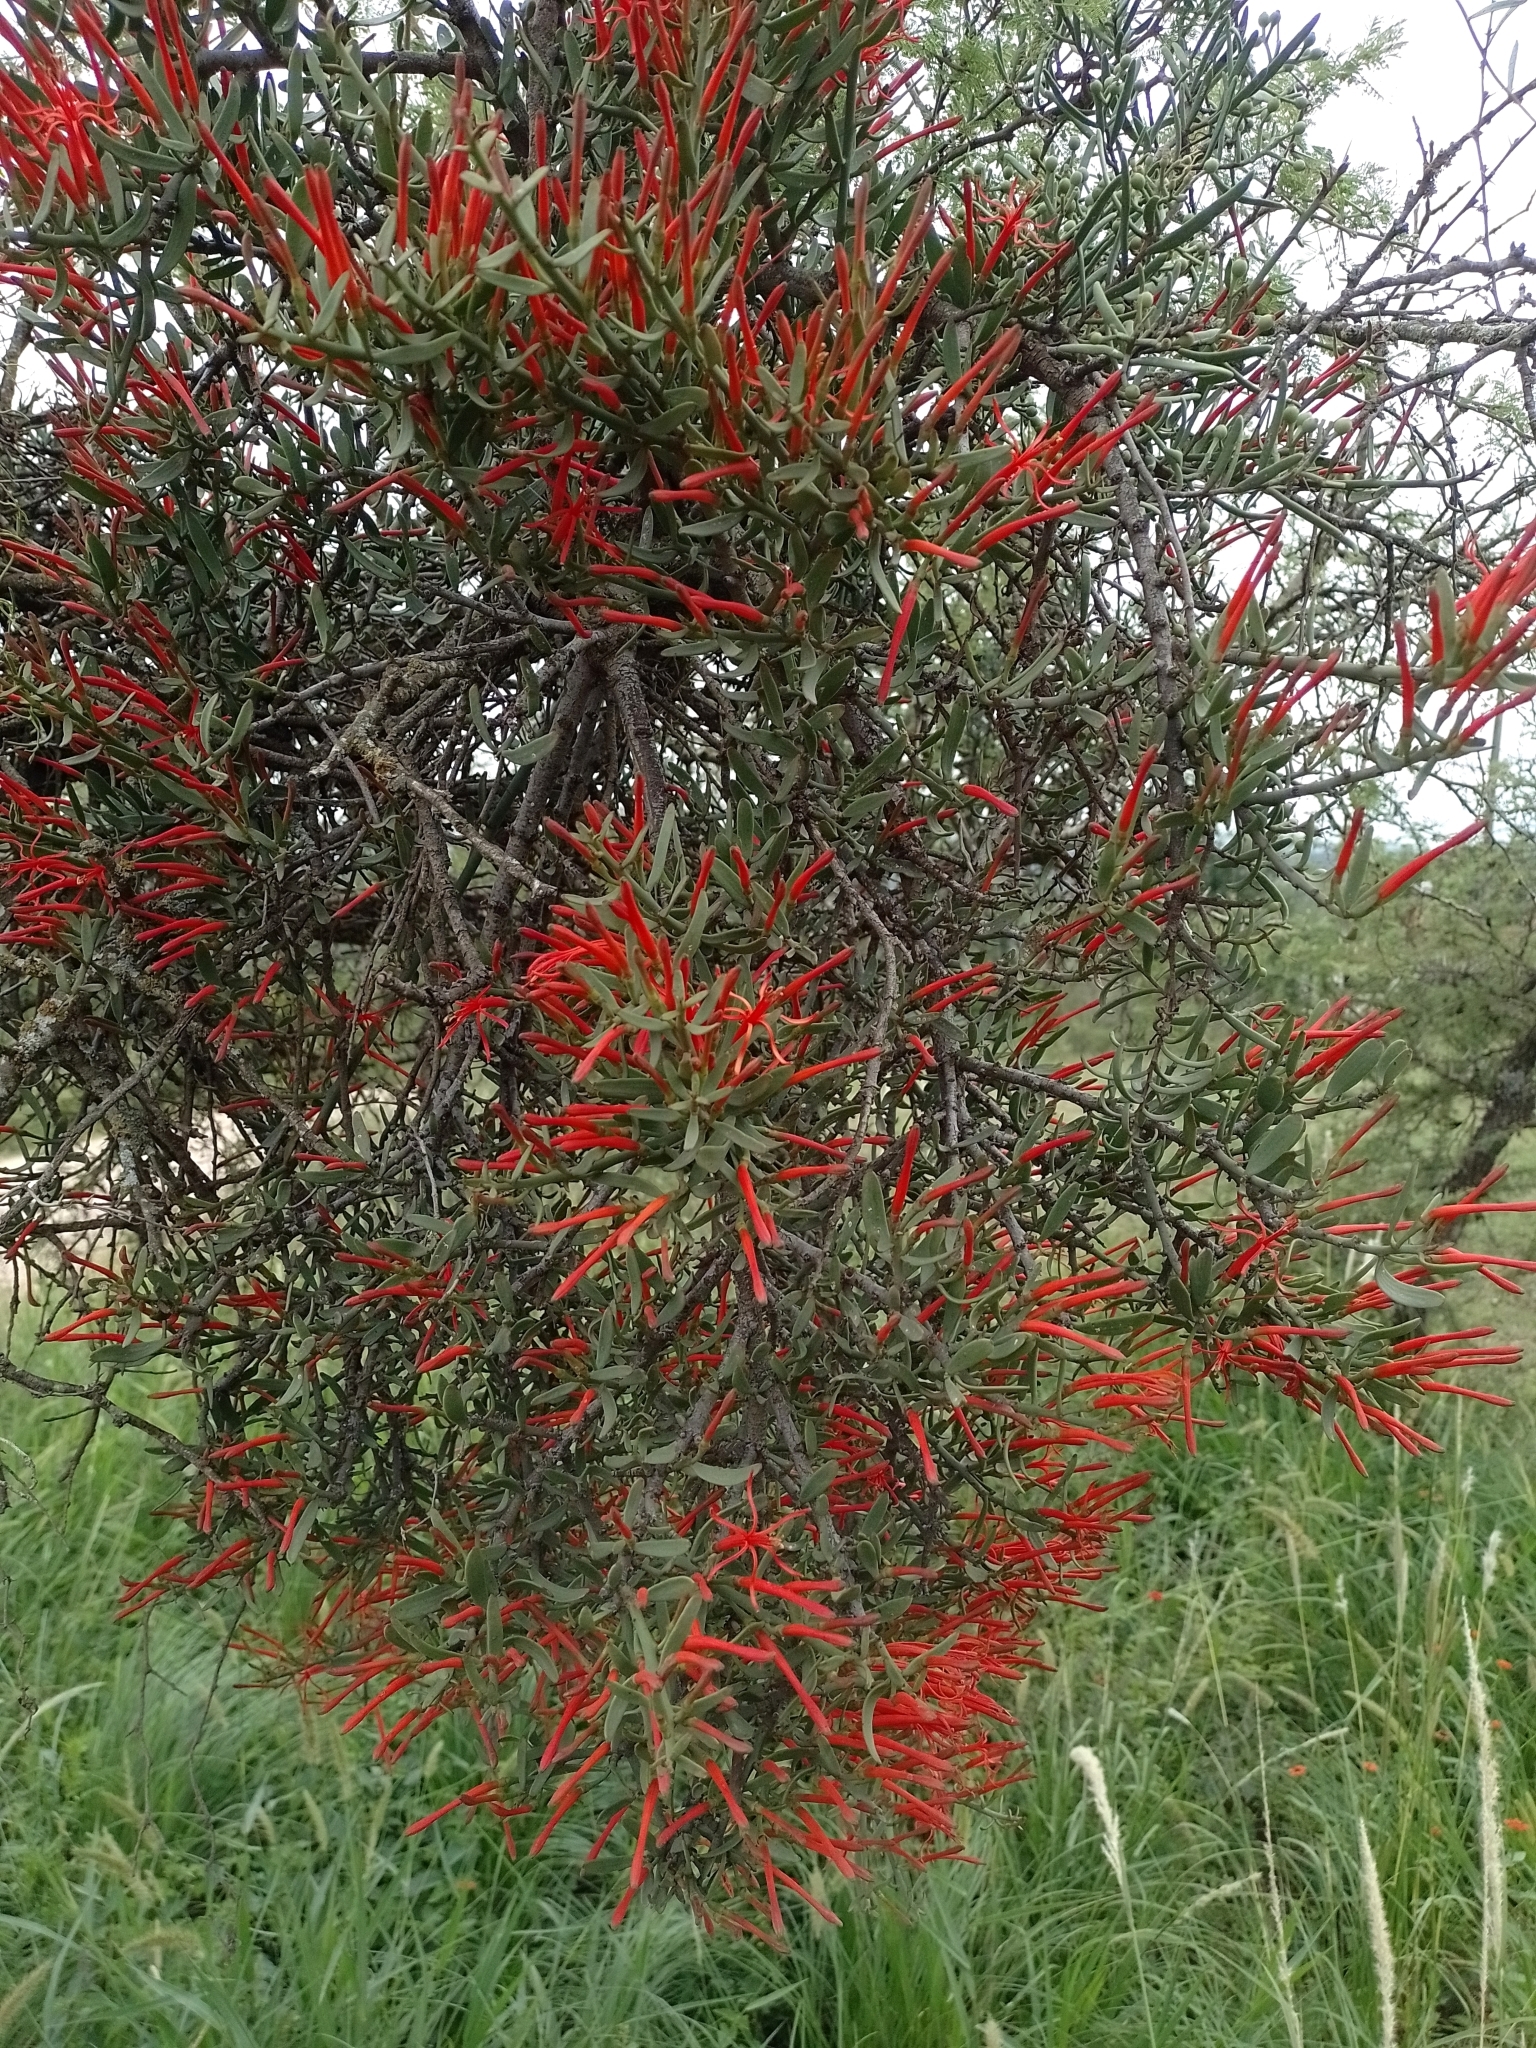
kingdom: Plantae
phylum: Tracheophyta
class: Magnoliopsida
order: Santalales
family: Loranthaceae
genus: Ligaria
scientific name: Ligaria cuneifolia
